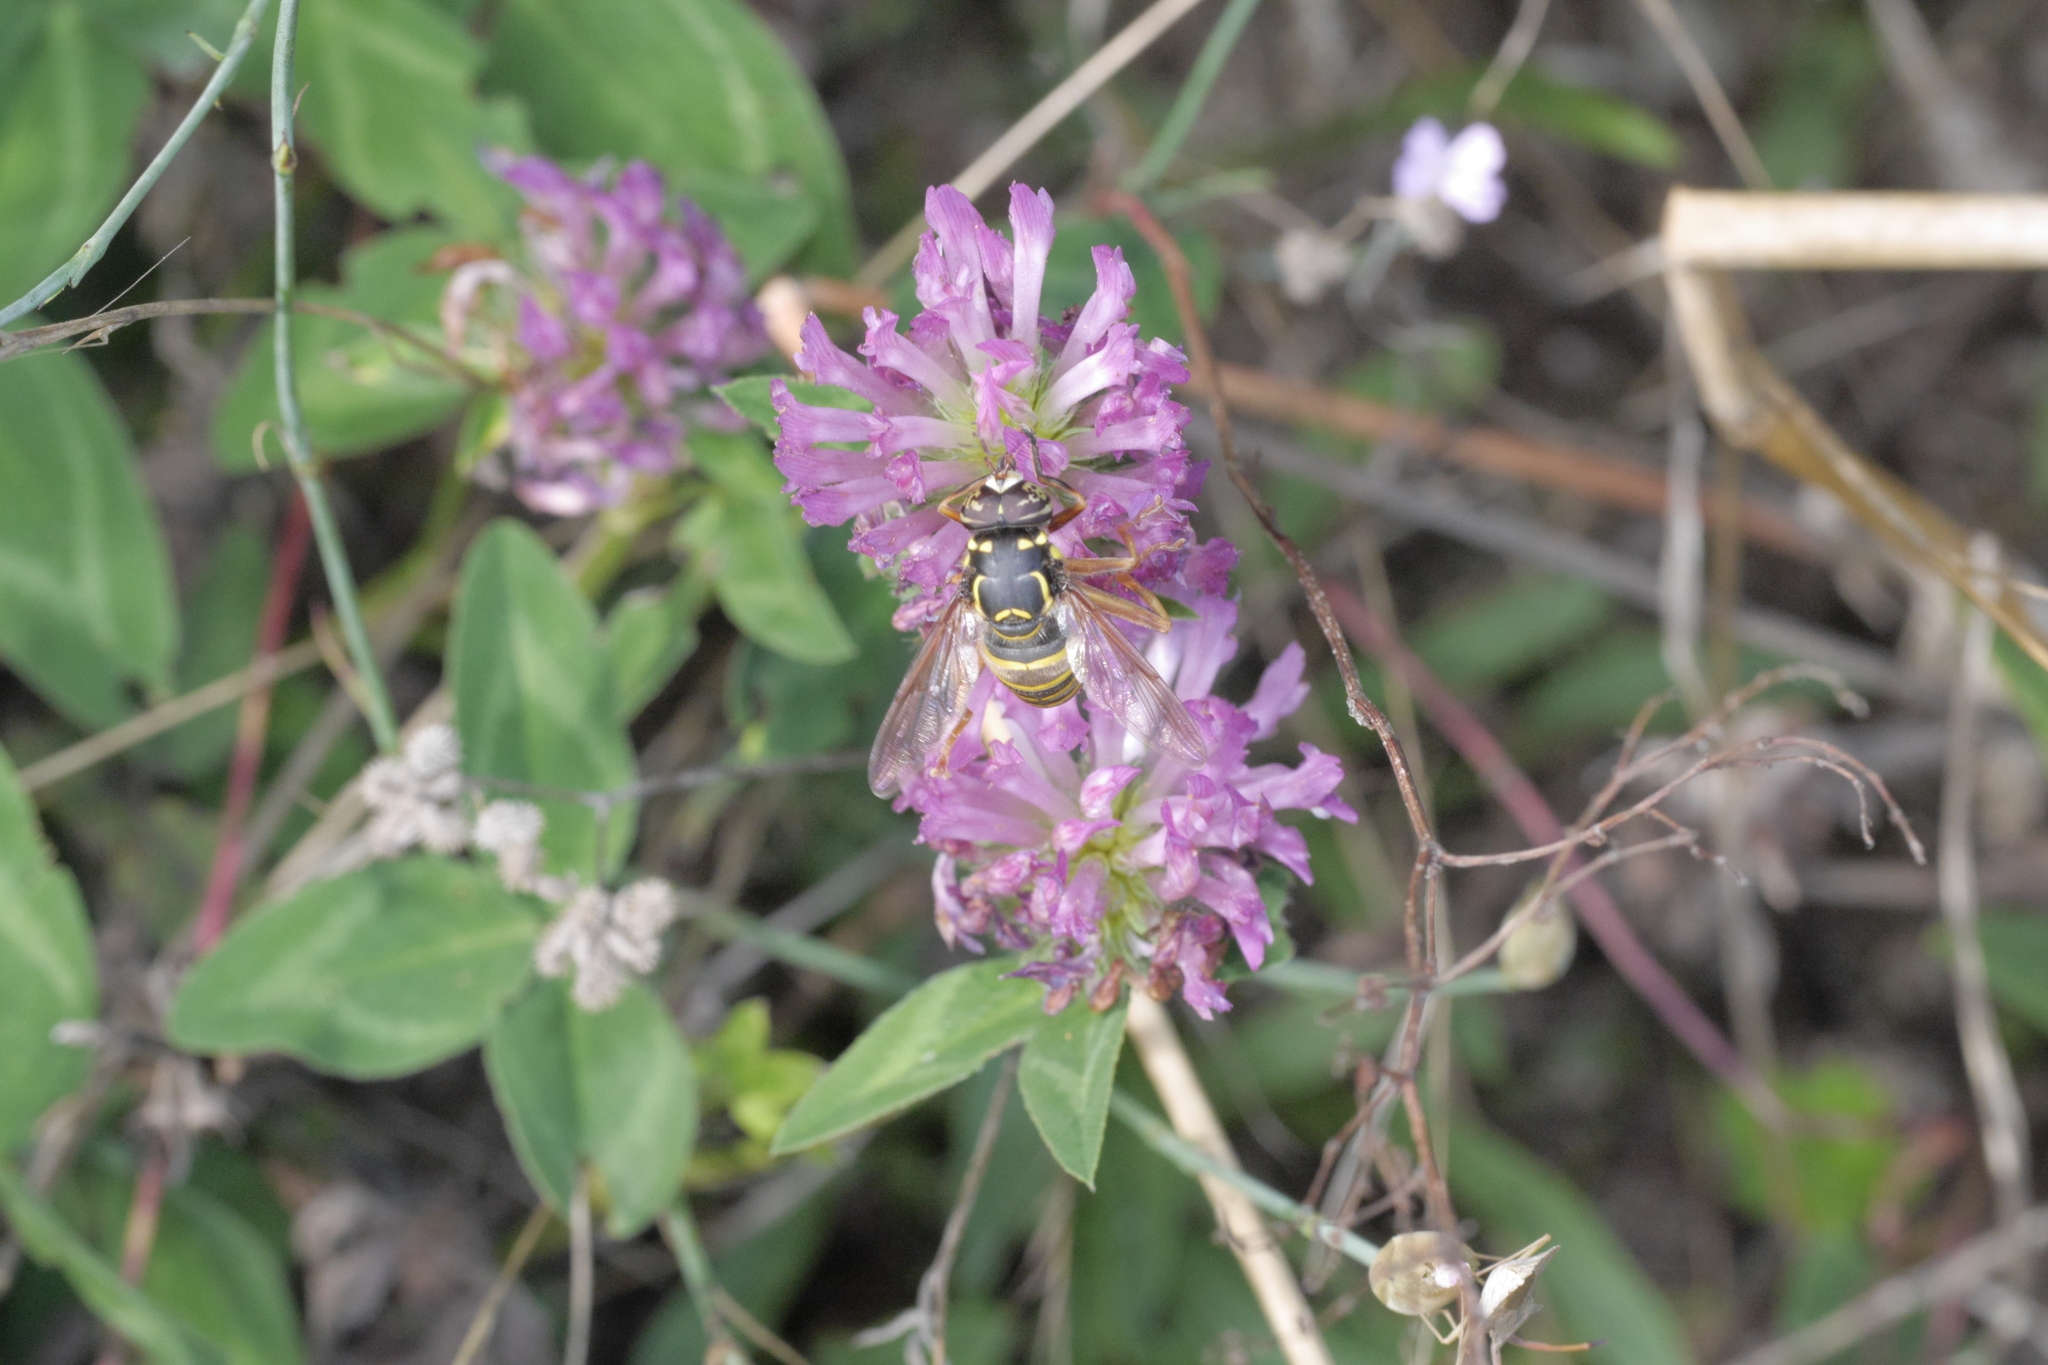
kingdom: Animalia
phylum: Arthropoda
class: Insecta
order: Diptera
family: Syrphidae
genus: Spilomyia
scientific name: Spilomyia manicata
